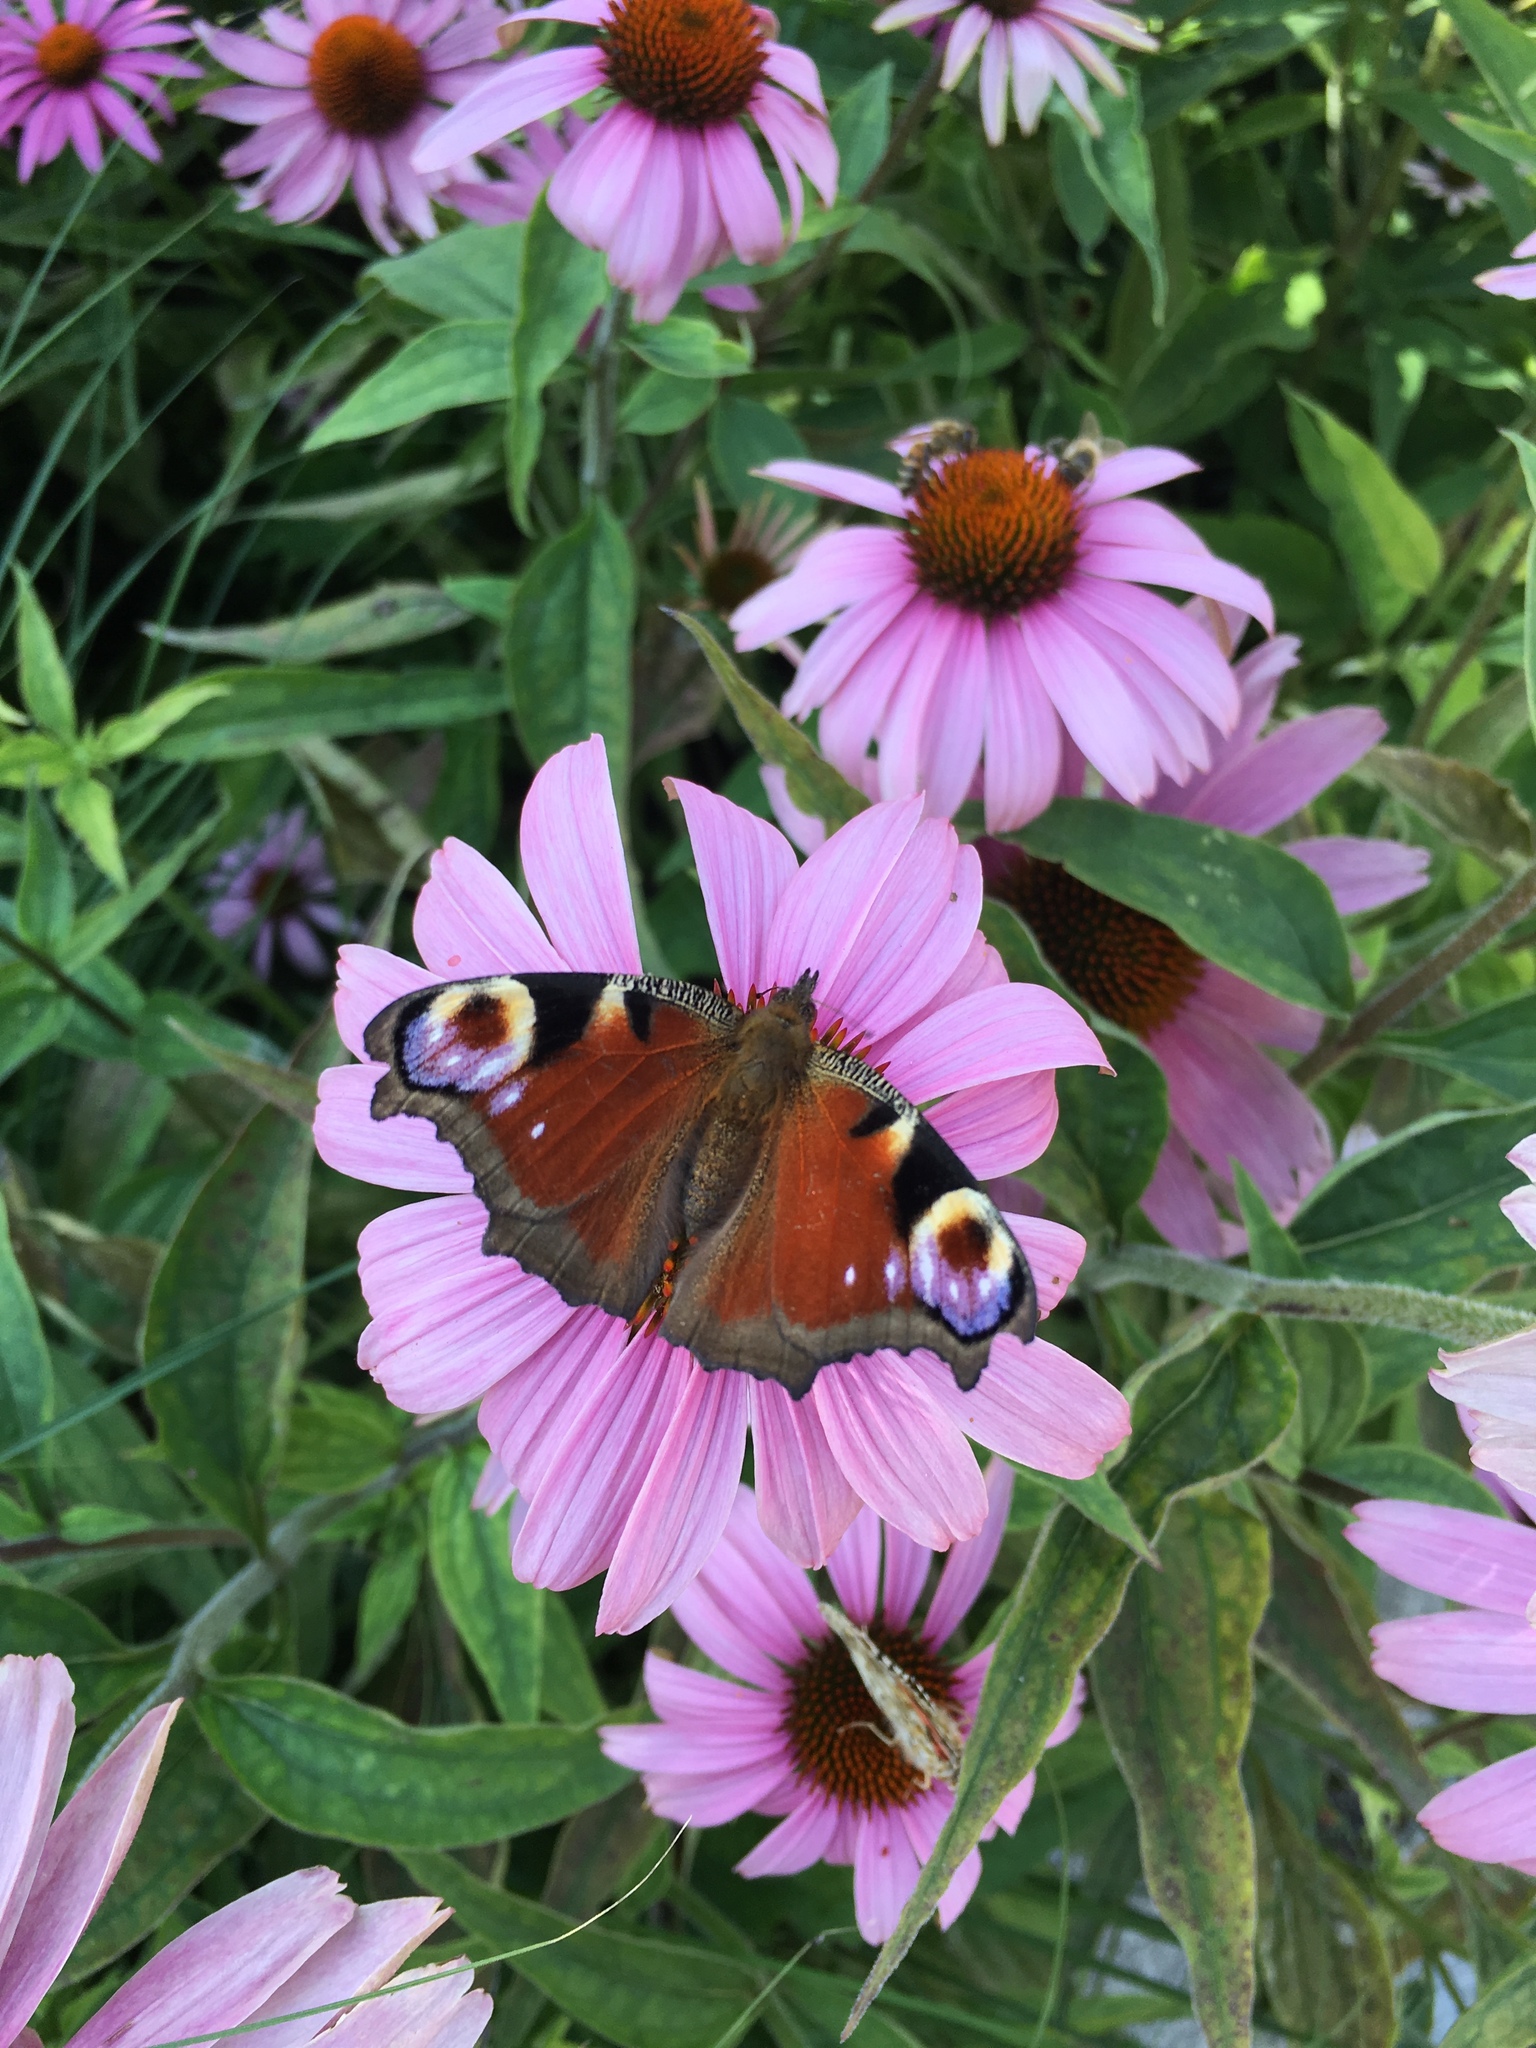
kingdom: Animalia
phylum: Arthropoda
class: Insecta
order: Lepidoptera
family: Nymphalidae
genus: Aglais
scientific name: Aglais io
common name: Peacock
